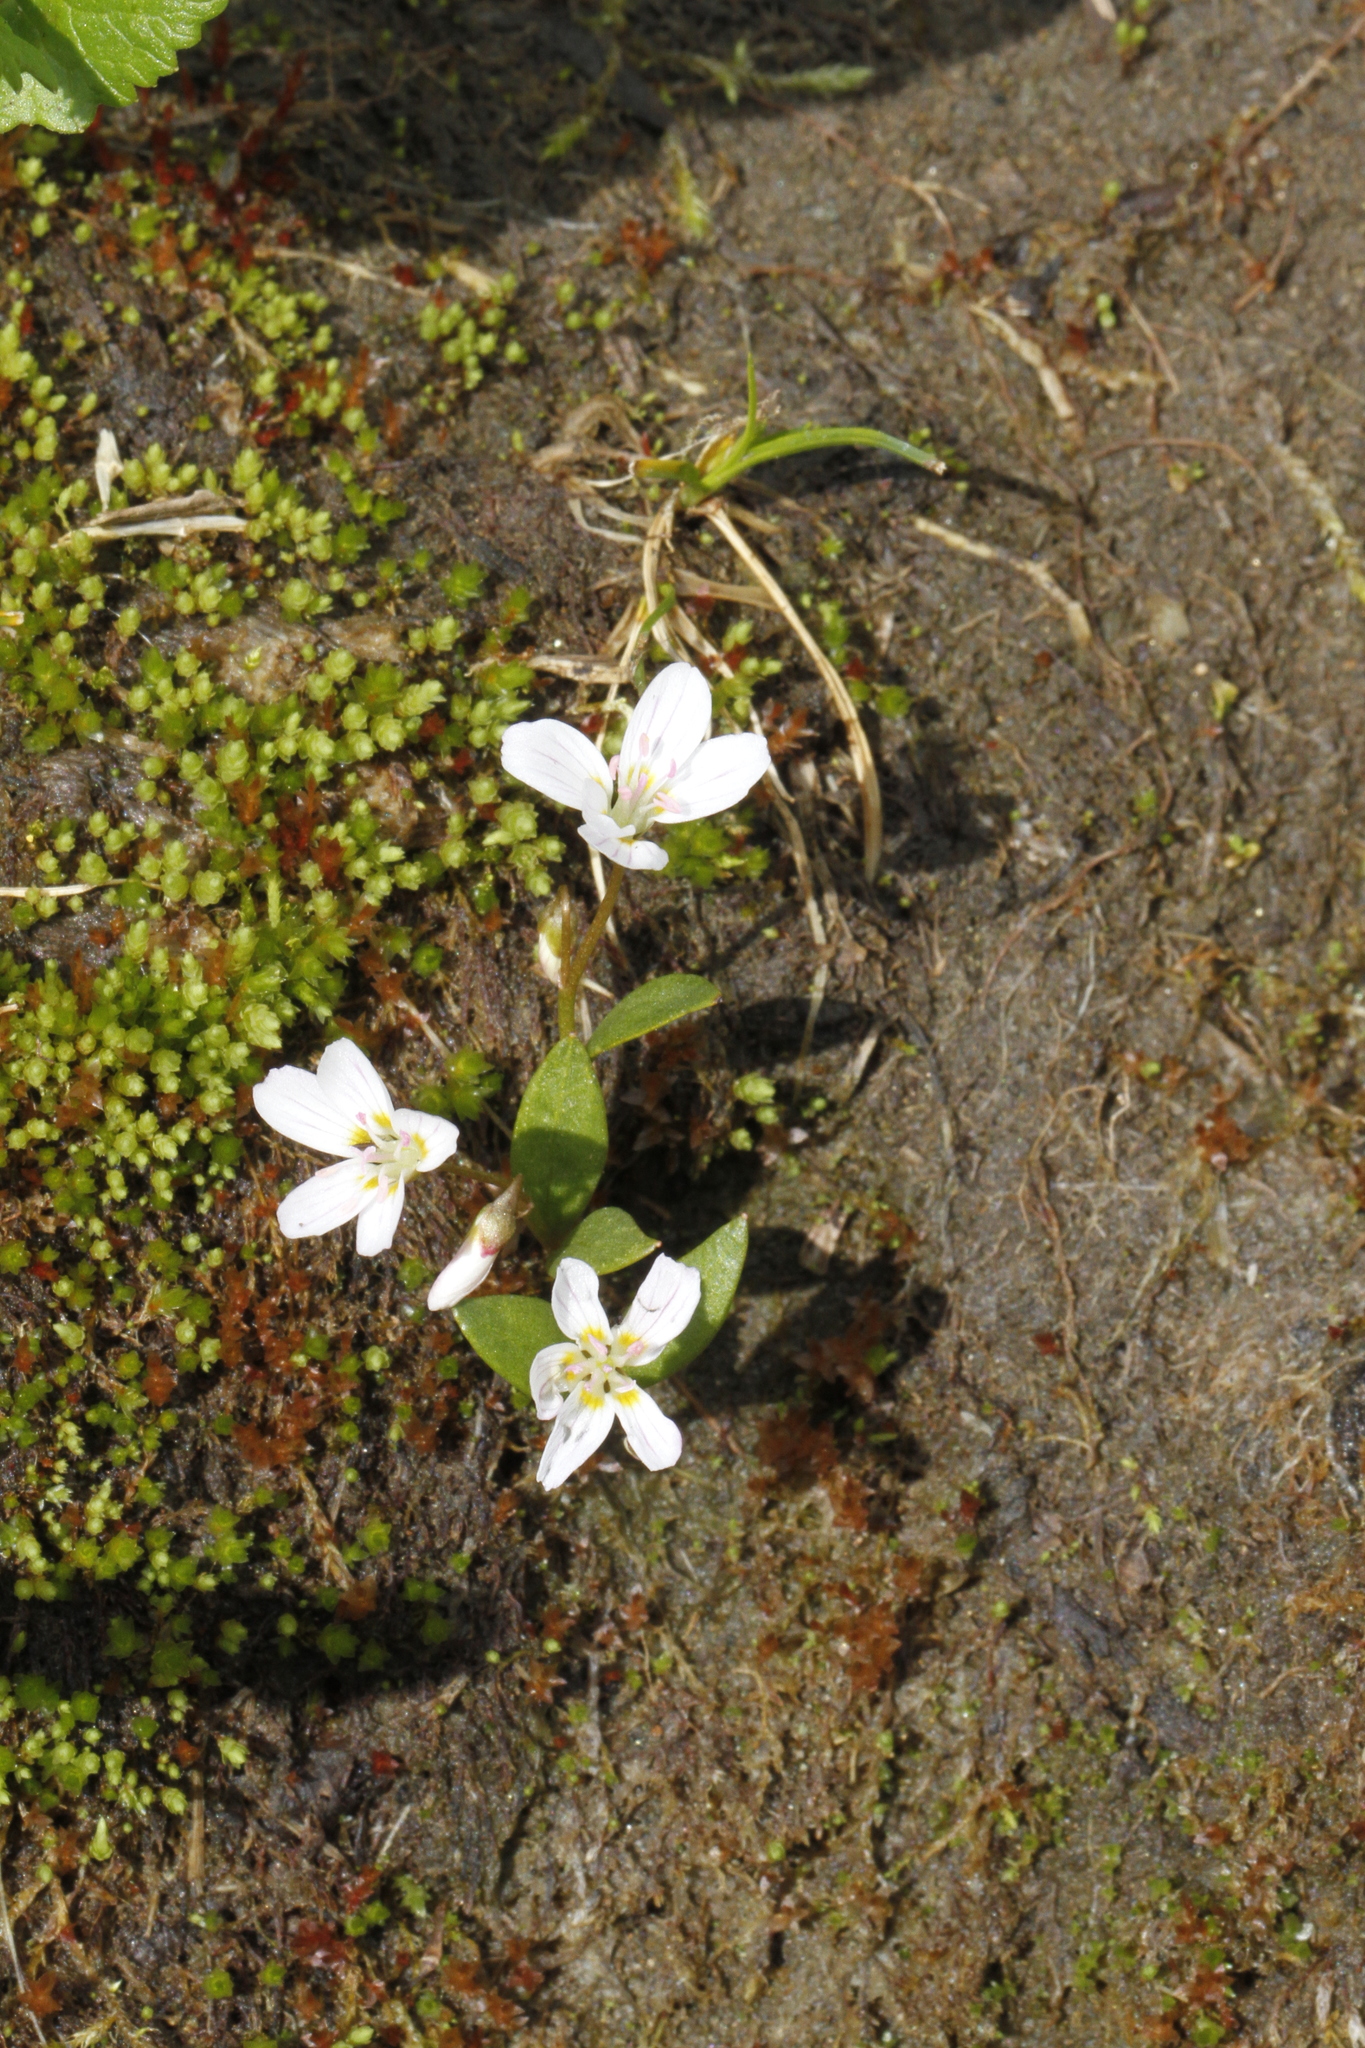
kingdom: Plantae
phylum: Tracheophyta
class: Magnoliopsida
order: Caryophyllales
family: Montiaceae
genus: Claytonia
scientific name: Claytonia lanceolata
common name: Western spring-beauty
